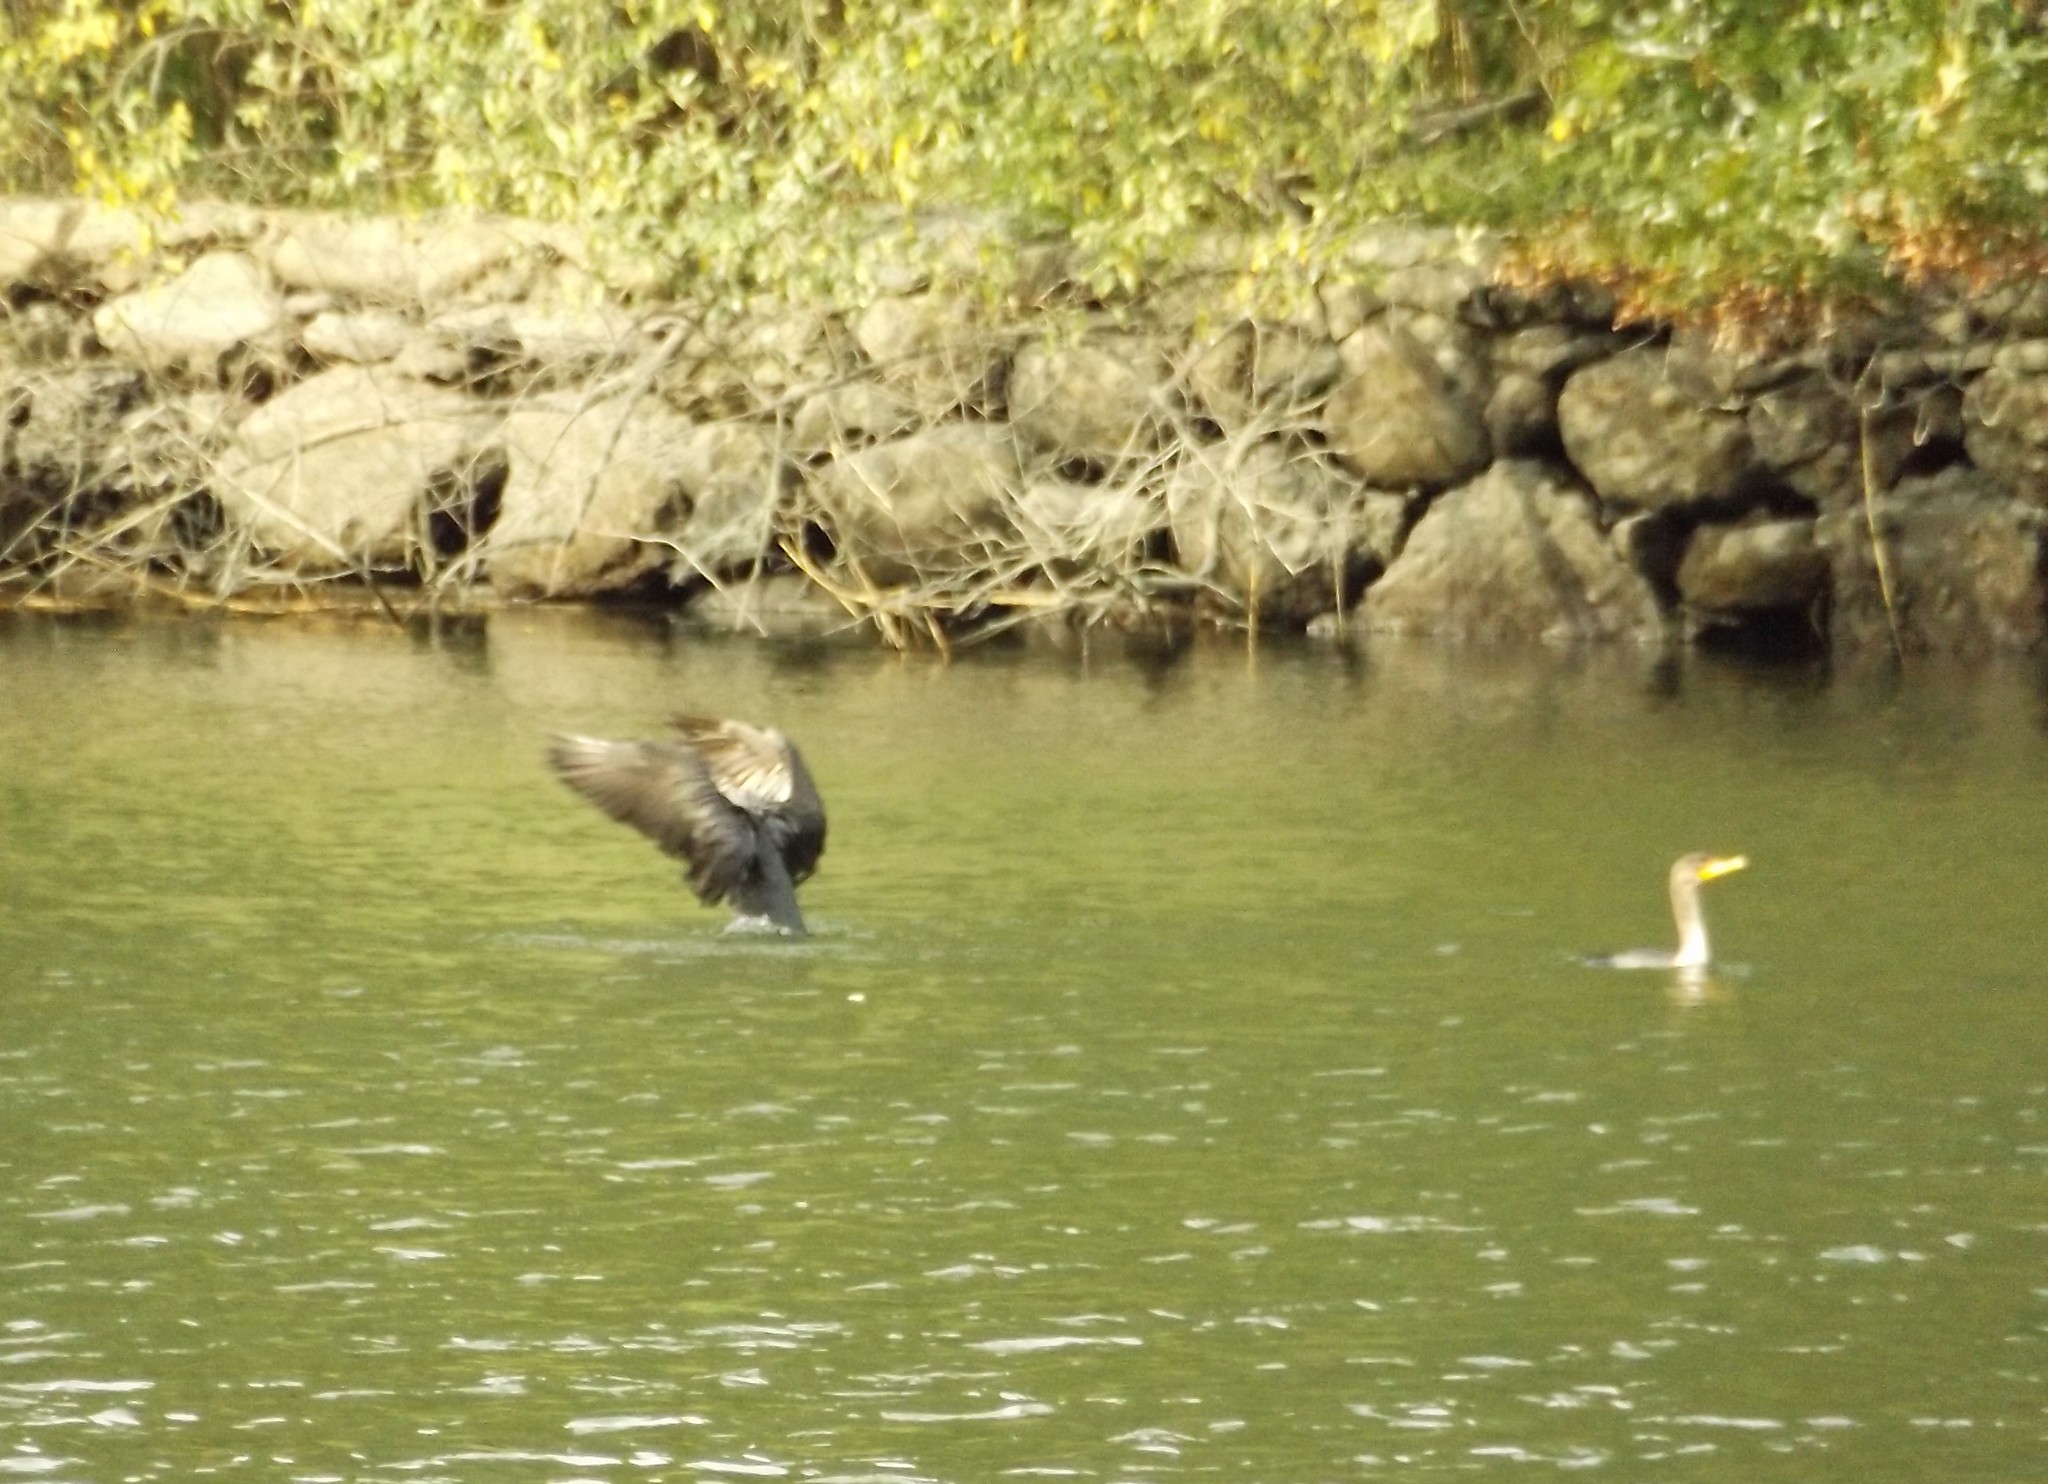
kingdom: Animalia
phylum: Chordata
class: Aves
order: Suliformes
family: Phalacrocoracidae
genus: Phalacrocorax
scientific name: Phalacrocorax auritus
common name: Double-crested cormorant
